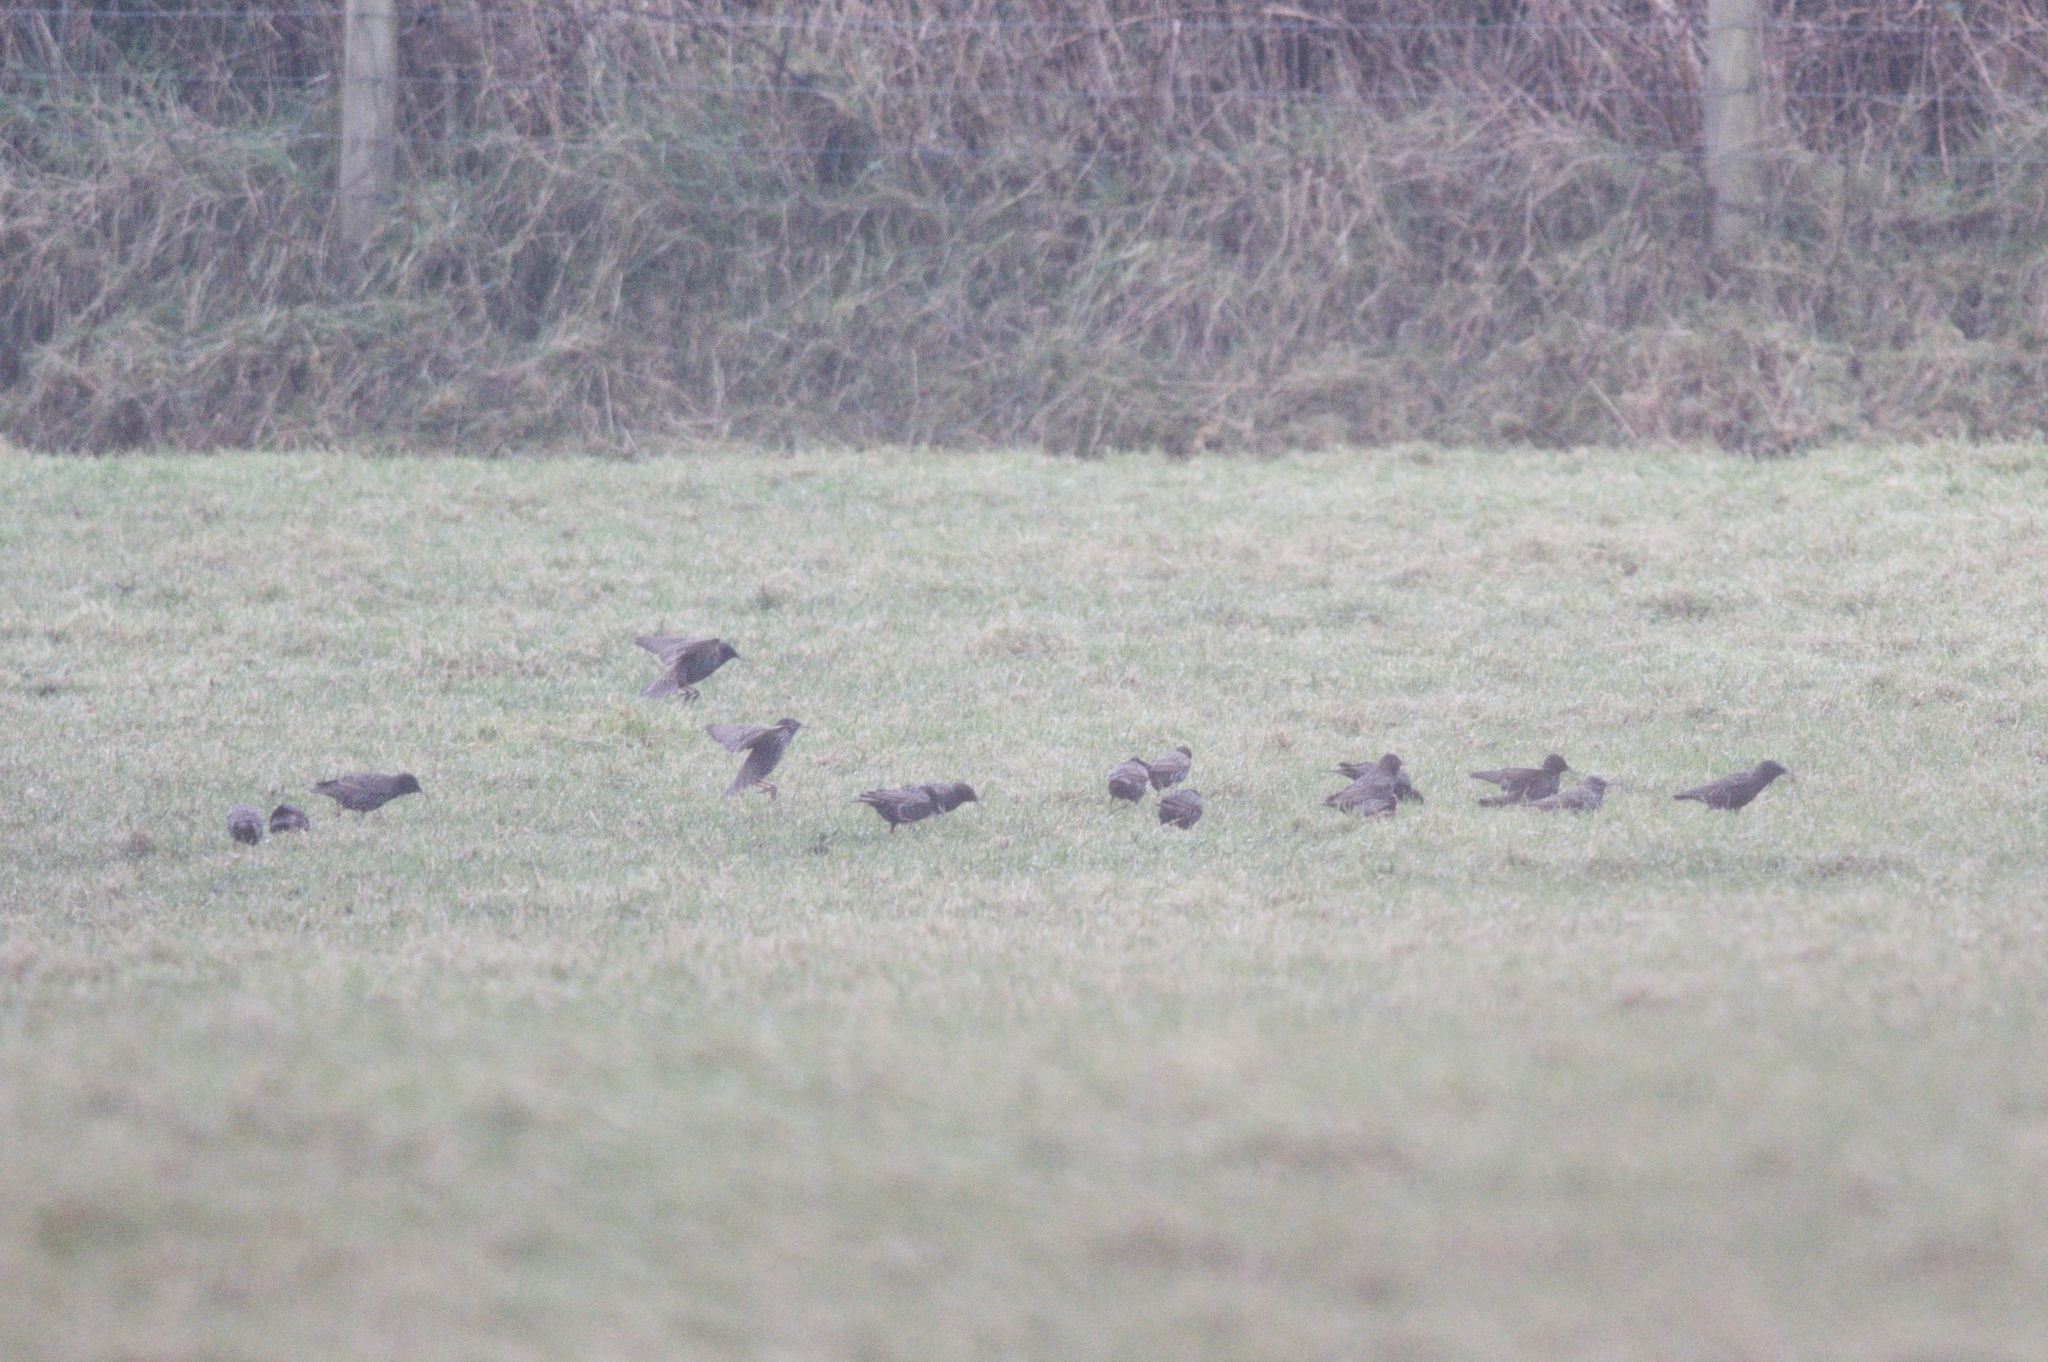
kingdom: Animalia
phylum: Chordata
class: Aves
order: Passeriformes
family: Sturnidae
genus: Sturnus
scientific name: Sturnus vulgaris
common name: Common starling
